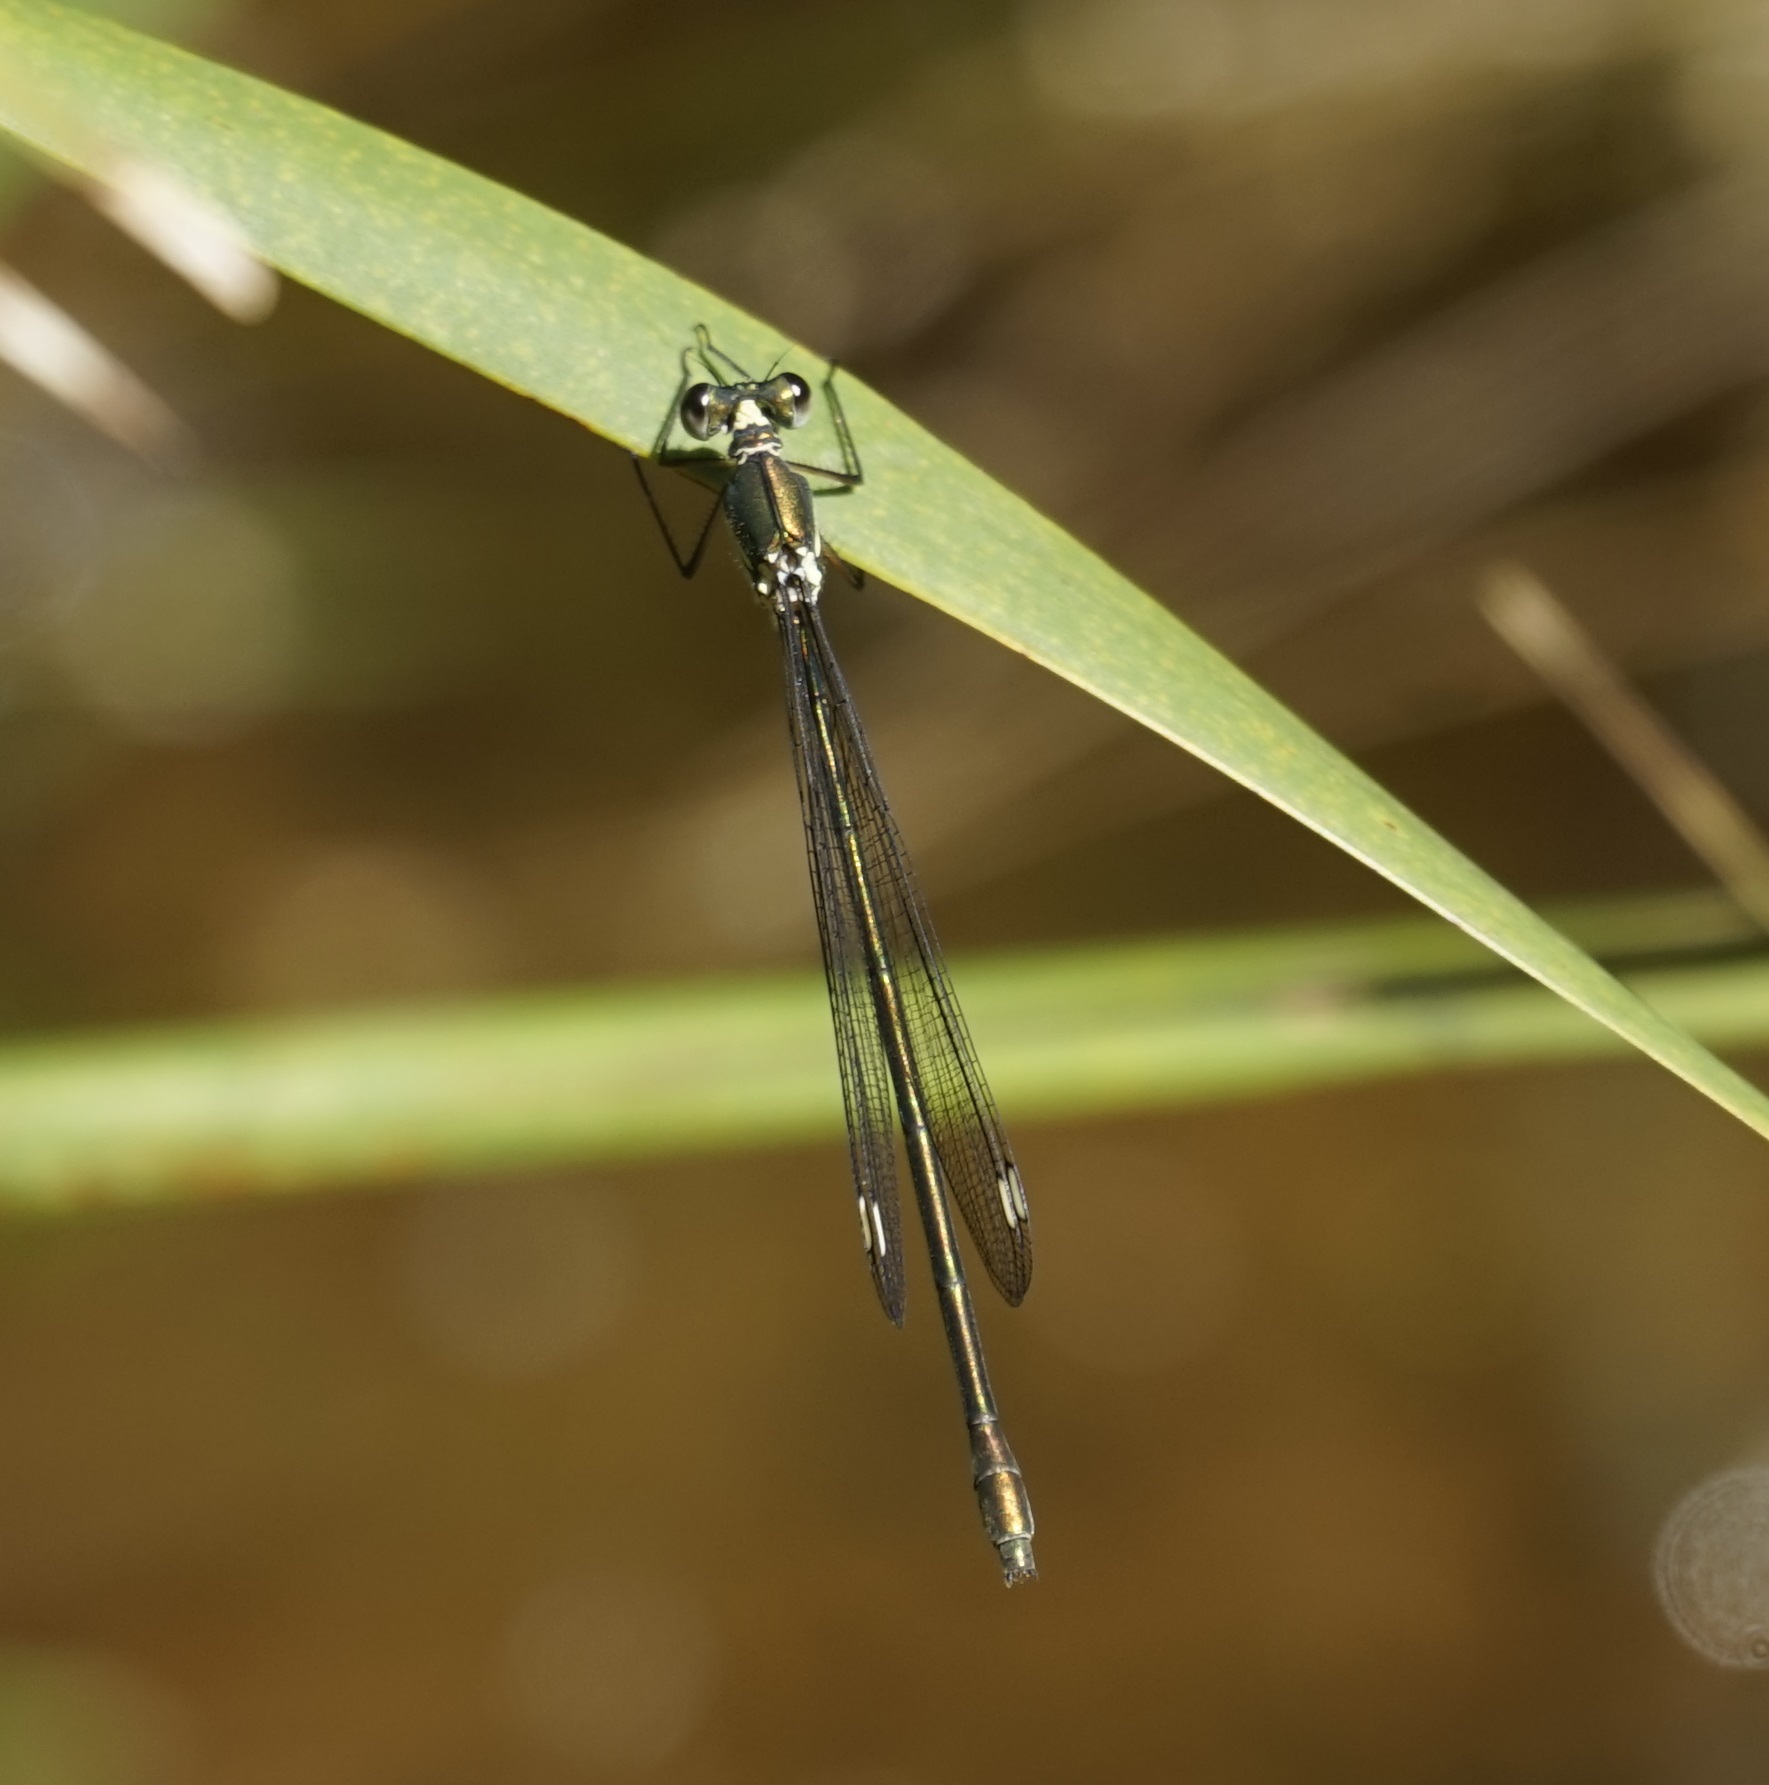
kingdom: Animalia
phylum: Arthropoda
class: Insecta
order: Odonata
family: Synlestidae
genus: Synlestes
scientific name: Synlestes weyersii
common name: Bronze needle
